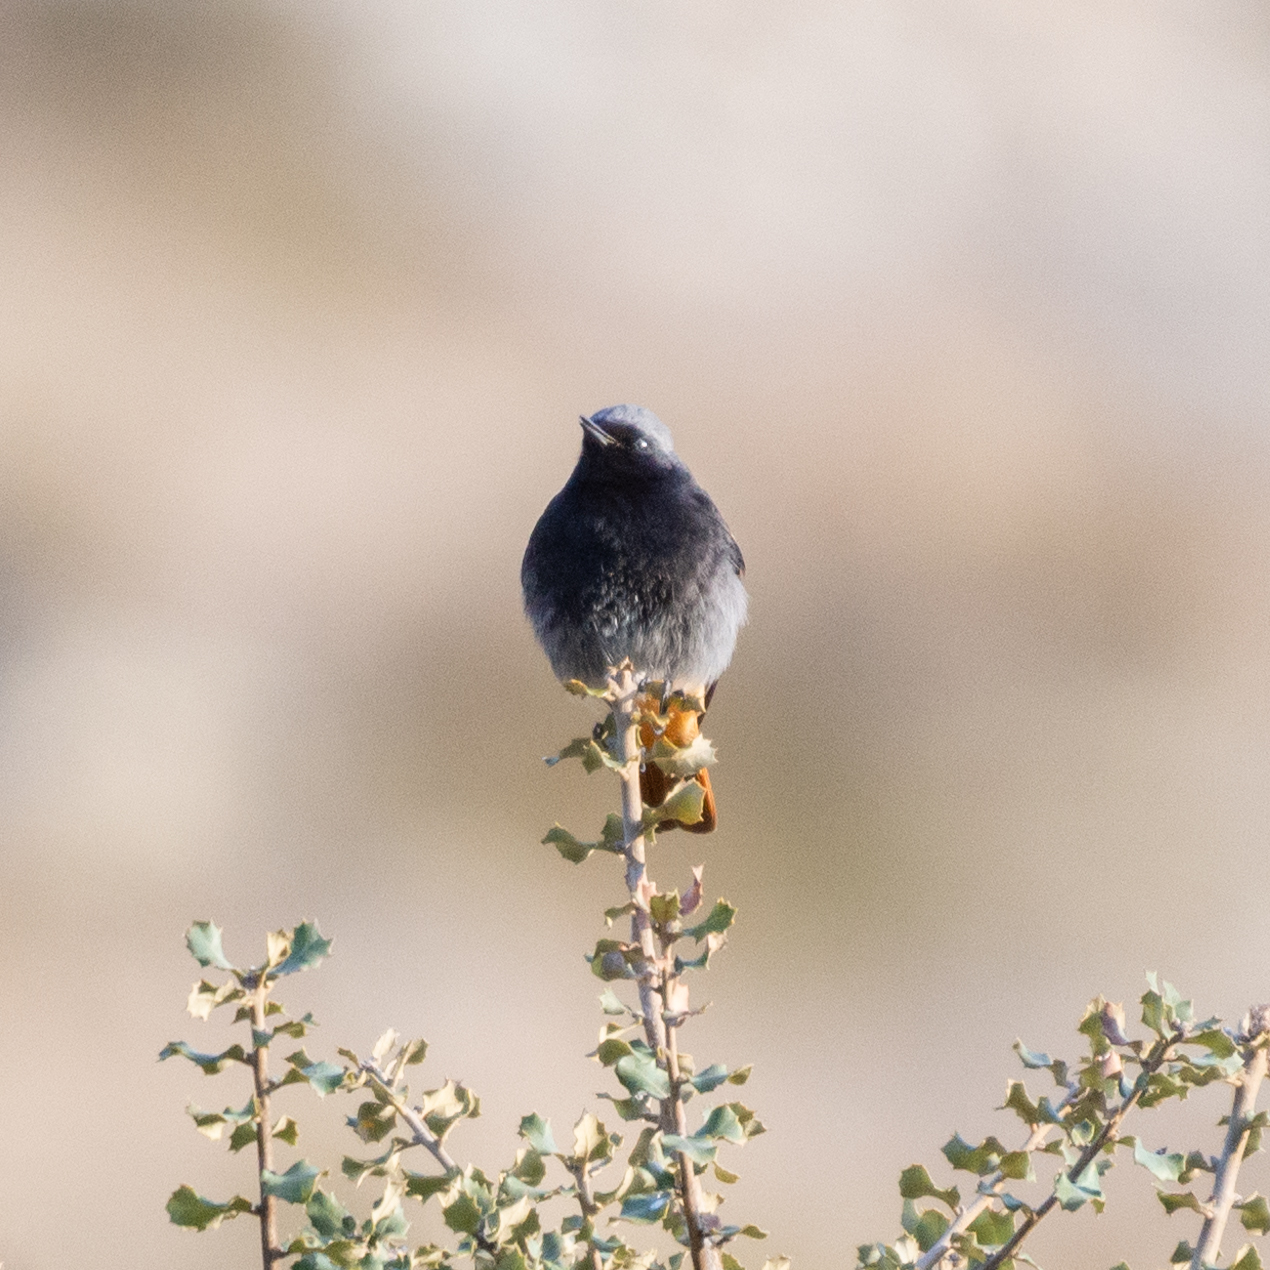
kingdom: Animalia
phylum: Chordata
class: Aves
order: Passeriformes
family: Muscicapidae
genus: Phoenicurus
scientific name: Phoenicurus ochruros
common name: Black redstart
